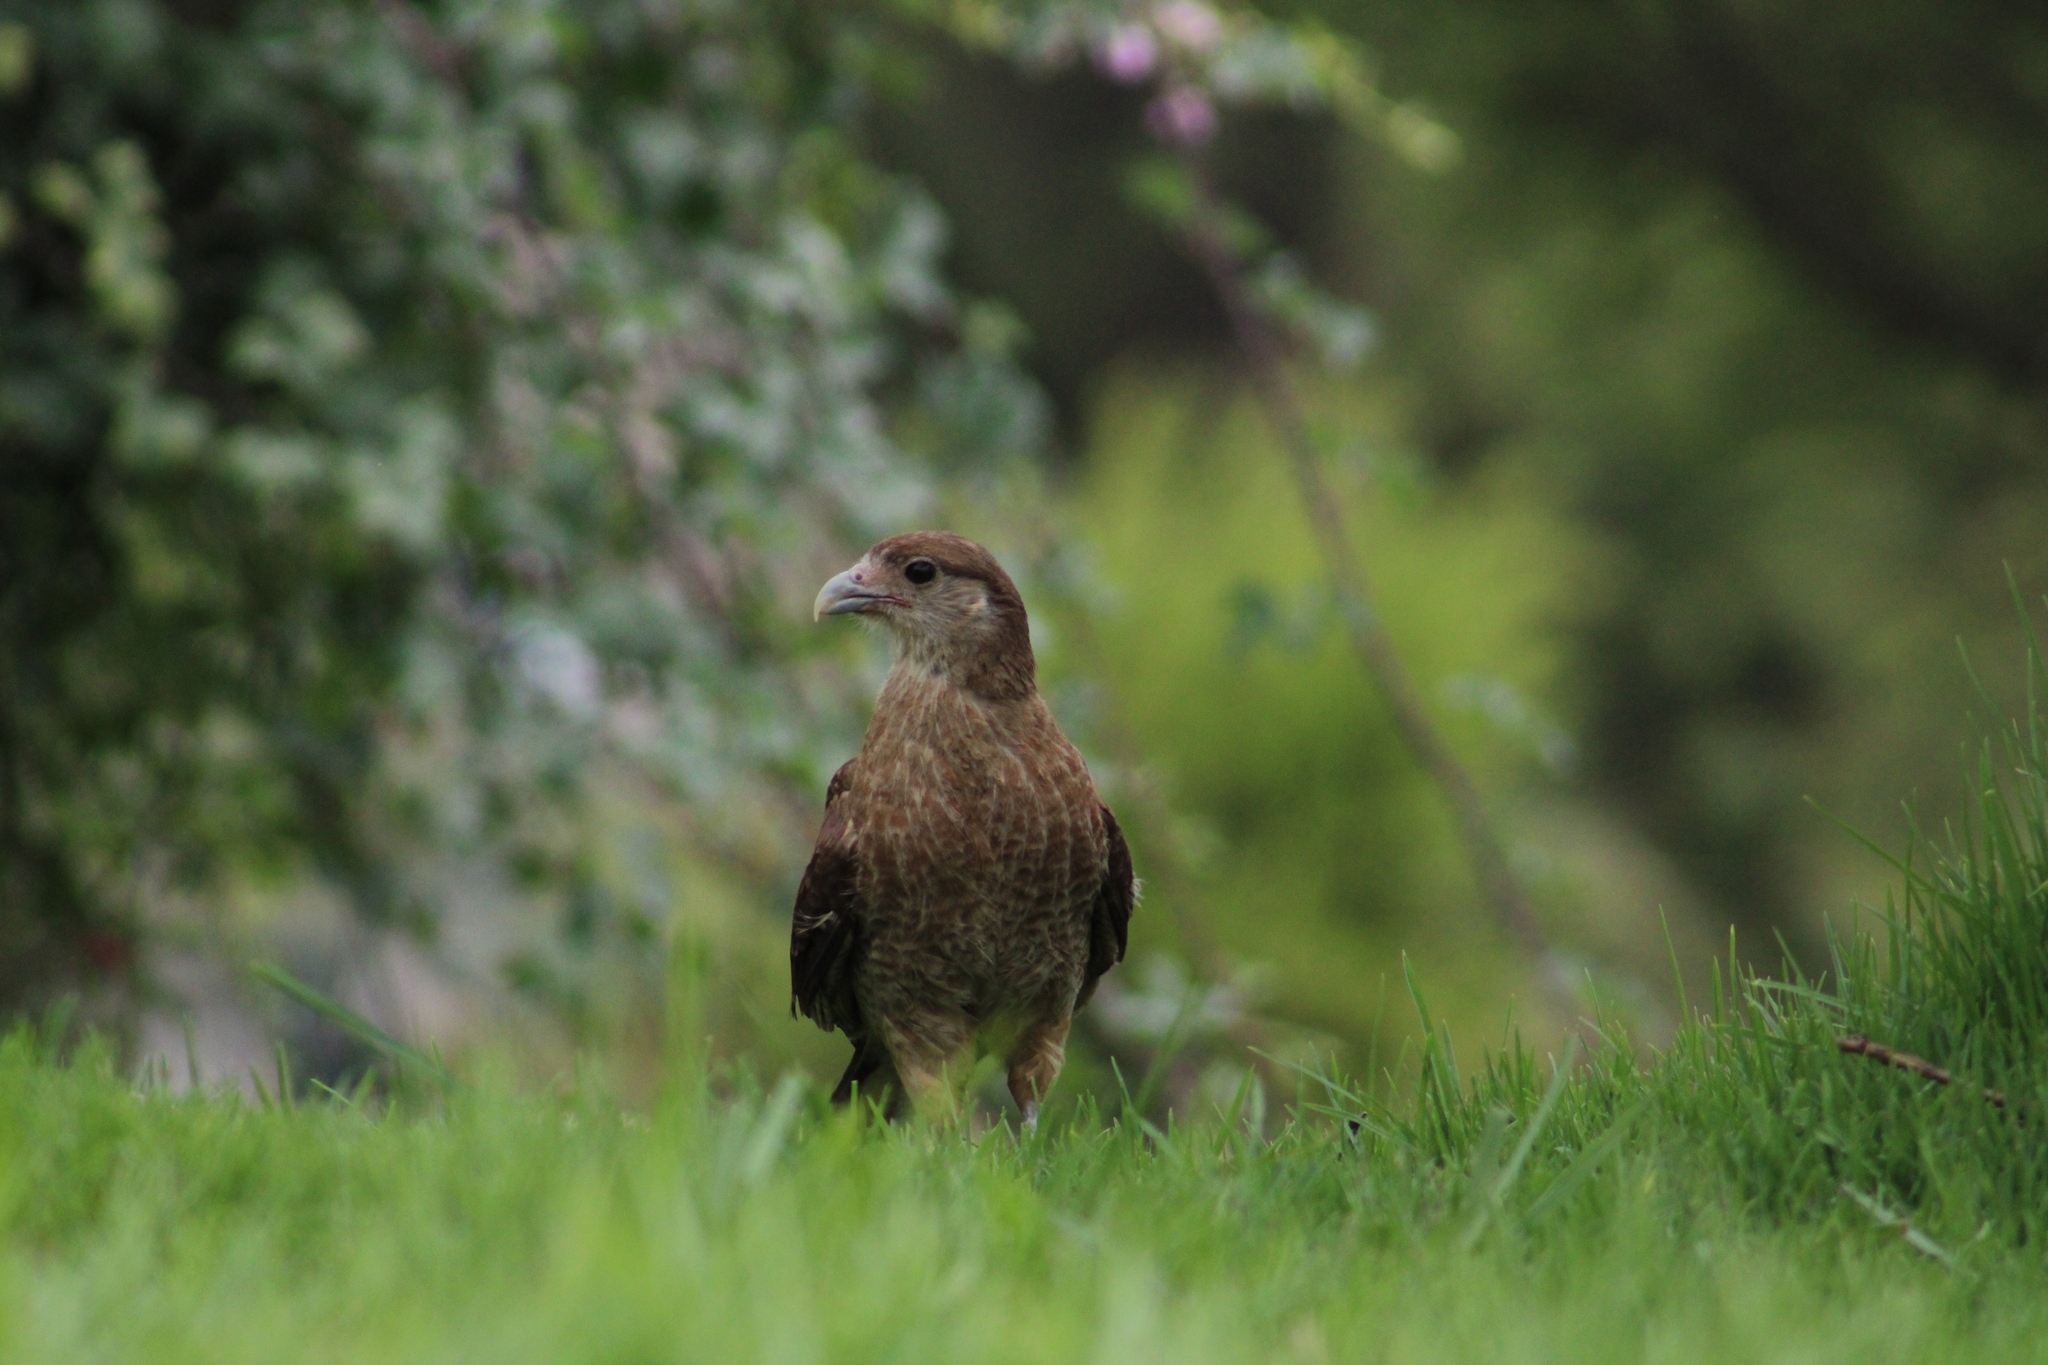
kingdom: Animalia
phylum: Chordata
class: Aves
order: Falconiformes
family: Falconidae
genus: Daptrius
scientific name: Daptrius
